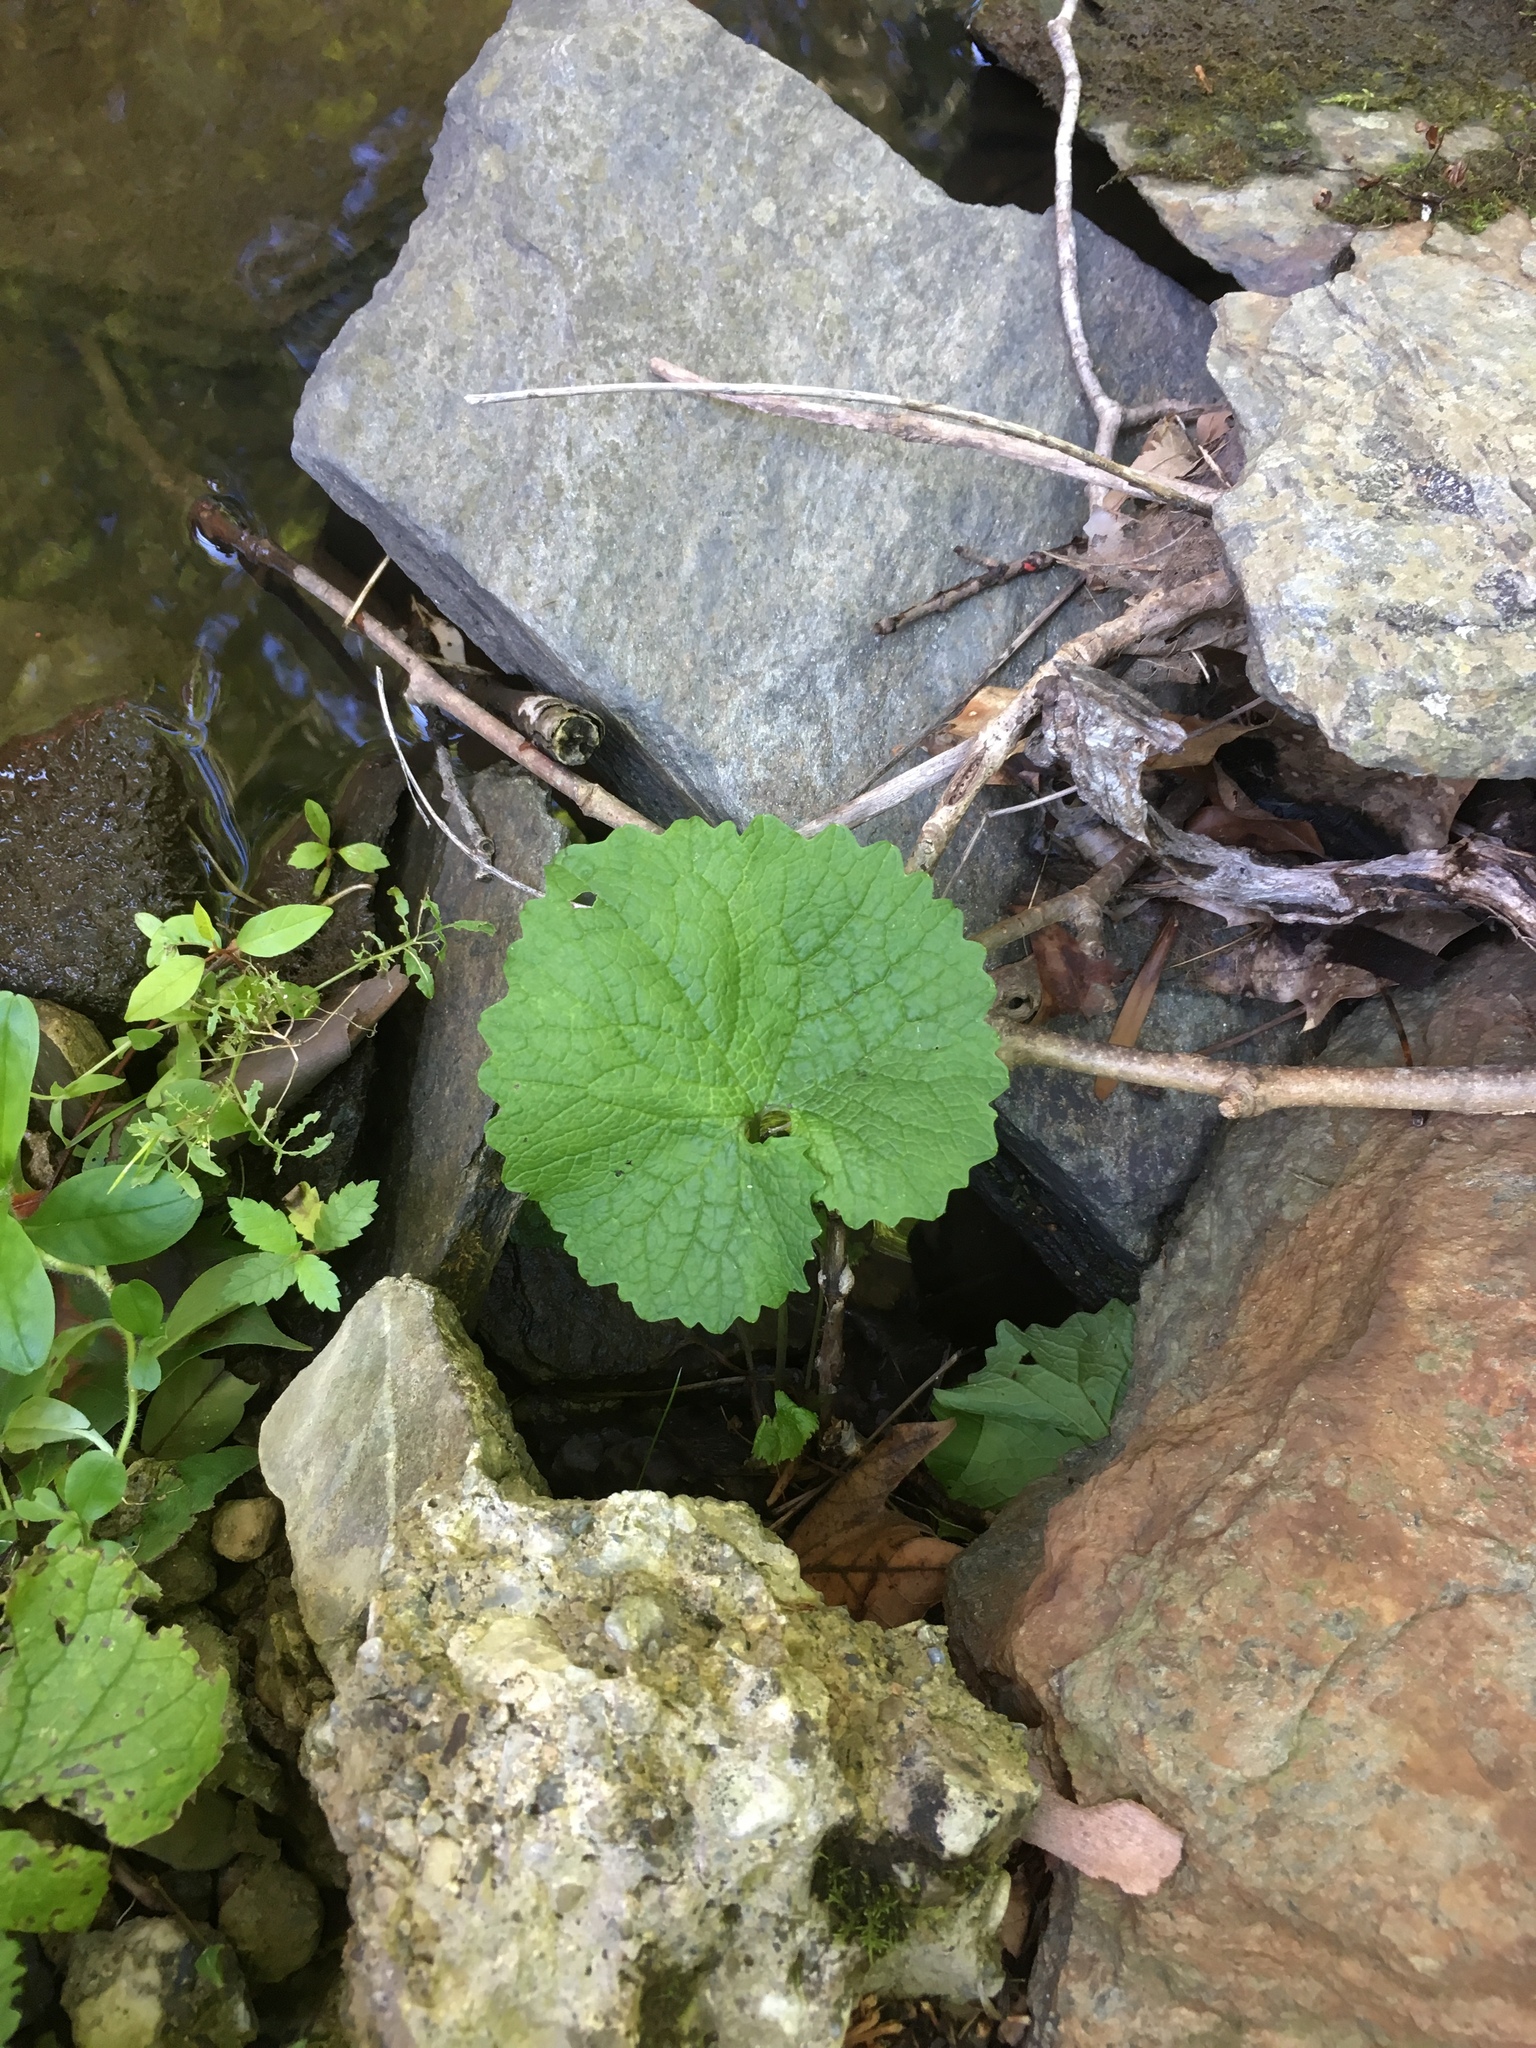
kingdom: Plantae
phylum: Tracheophyta
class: Magnoliopsida
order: Brassicales
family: Brassicaceae
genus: Alliaria
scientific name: Alliaria petiolata
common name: Garlic mustard
